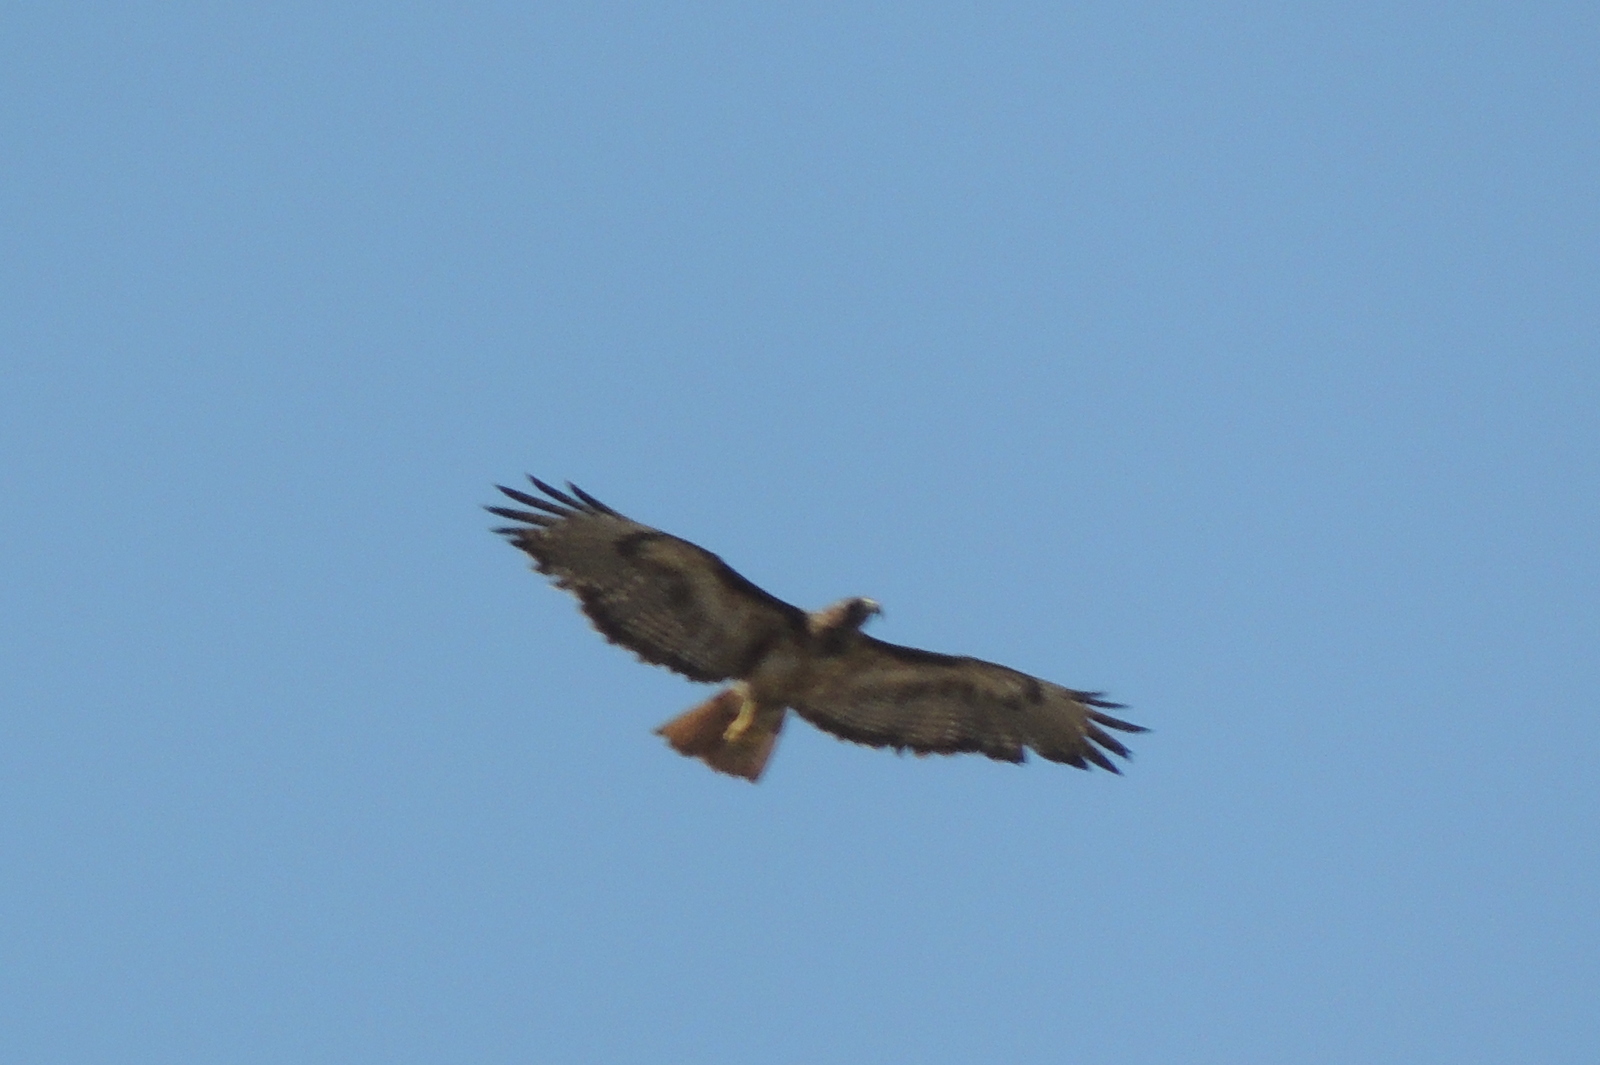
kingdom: Animalia
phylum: Chordata
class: Aves
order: Accipitriformes
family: Accipitridae
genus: Buteo
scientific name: Buteo jamaicensis
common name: Red-tailed hawk
